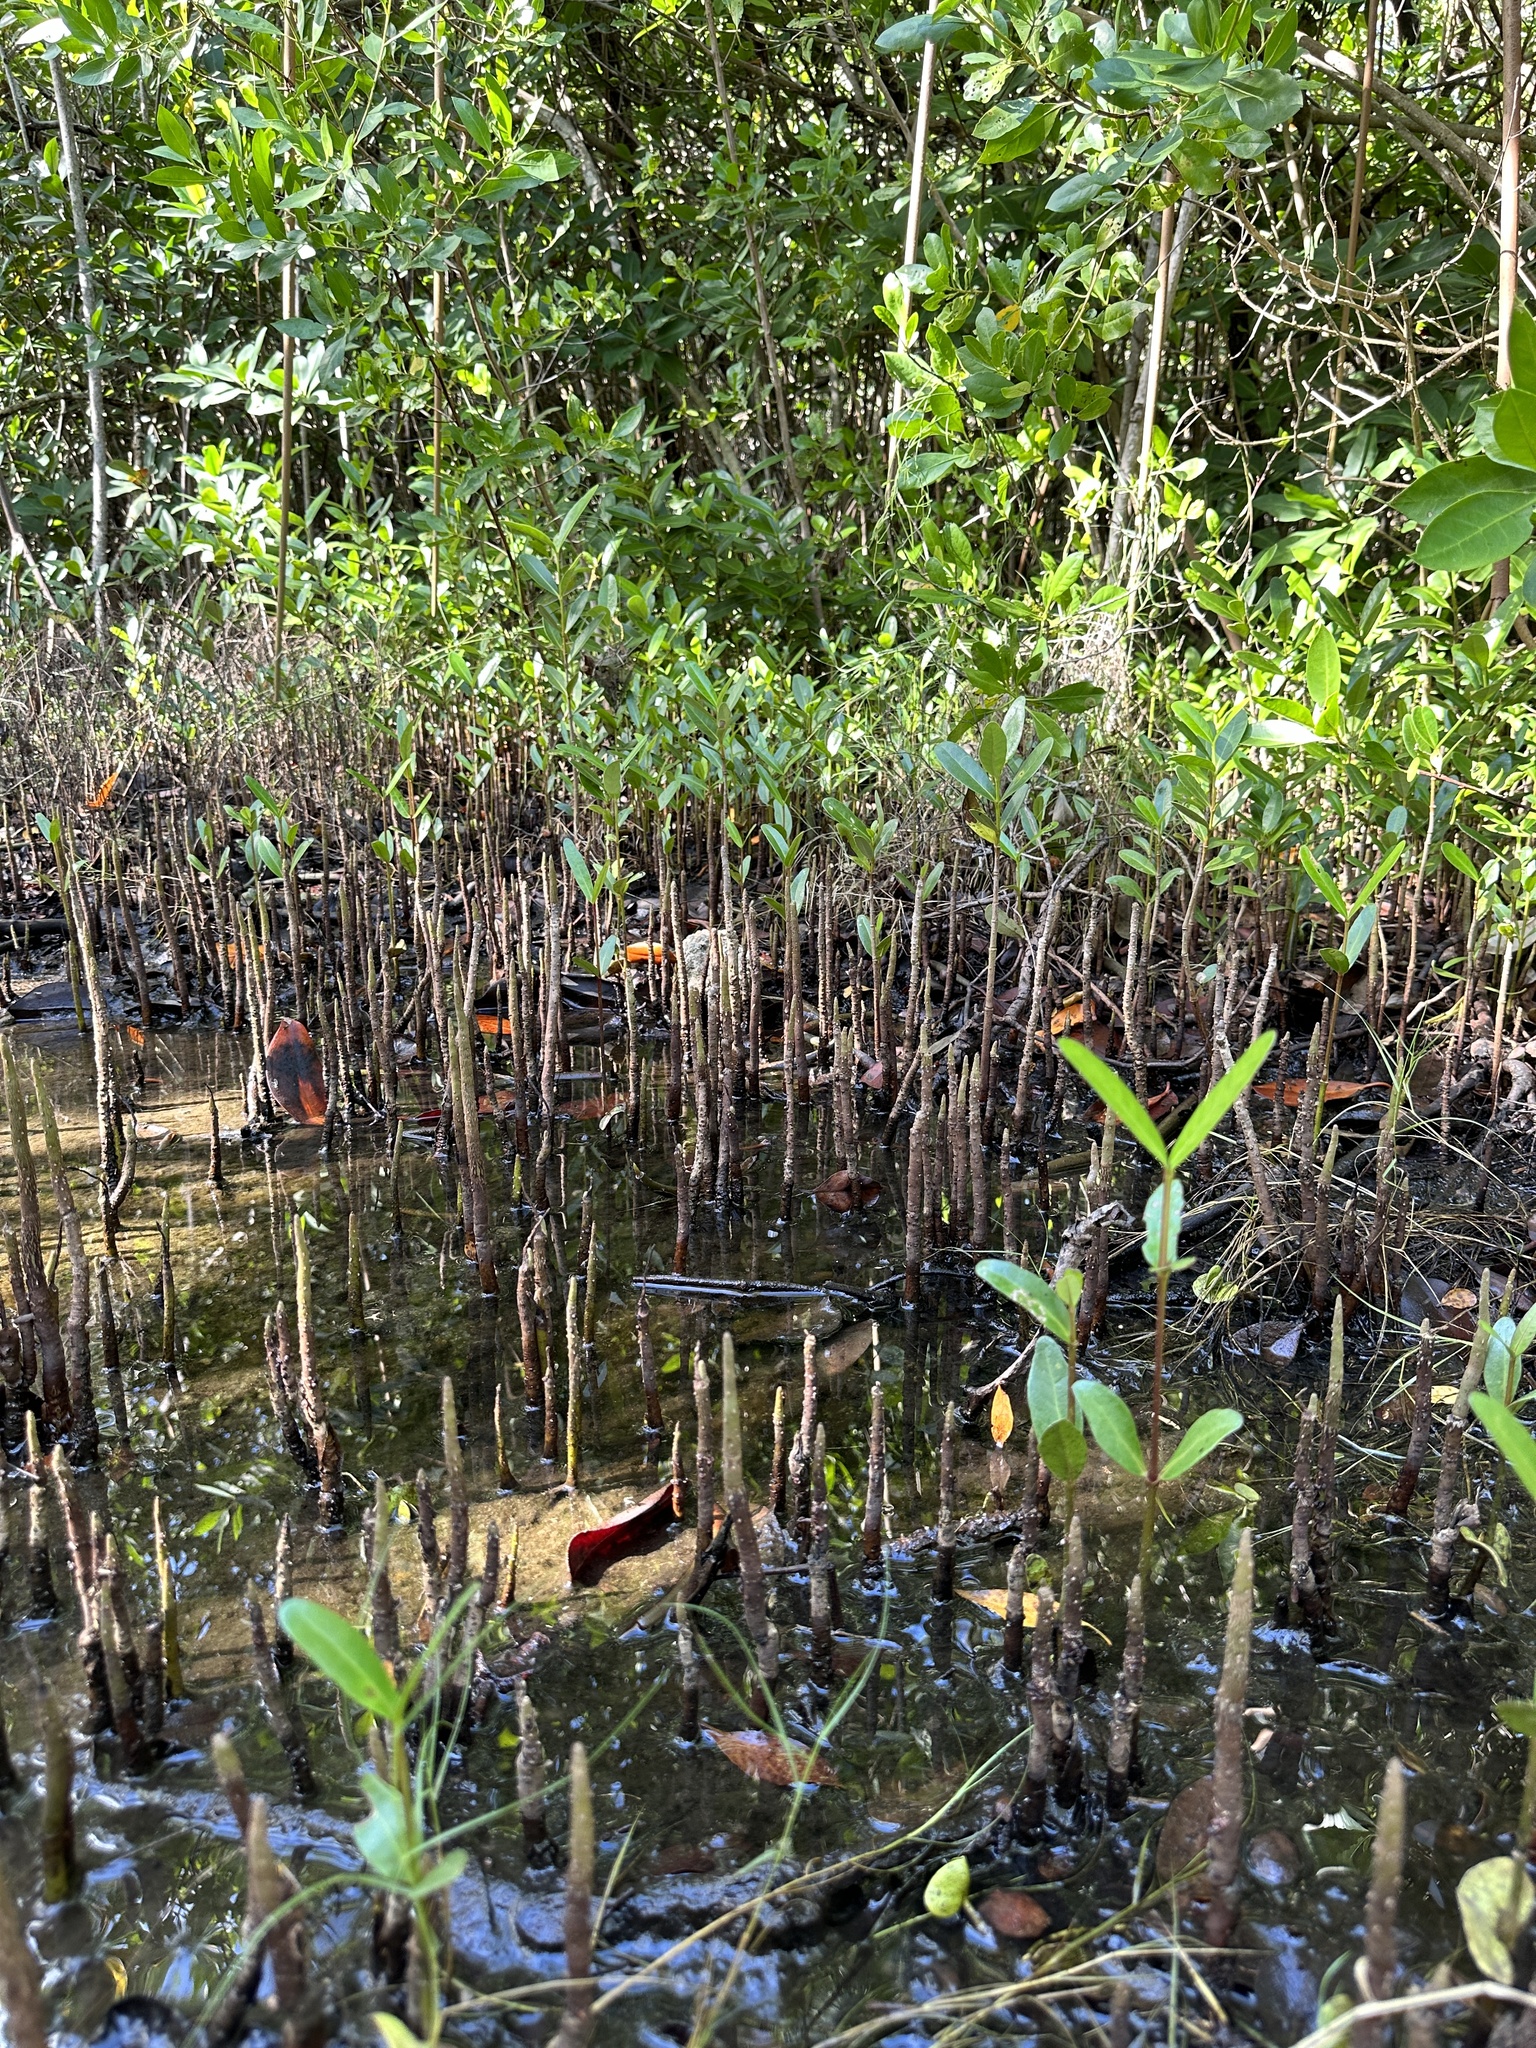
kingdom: Plantae
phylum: Tracheophyta
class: Magnoliopsida
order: Lamiales
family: Acanthaceae
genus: Avicennia
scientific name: Avicennia germinans
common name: Black mangrove
